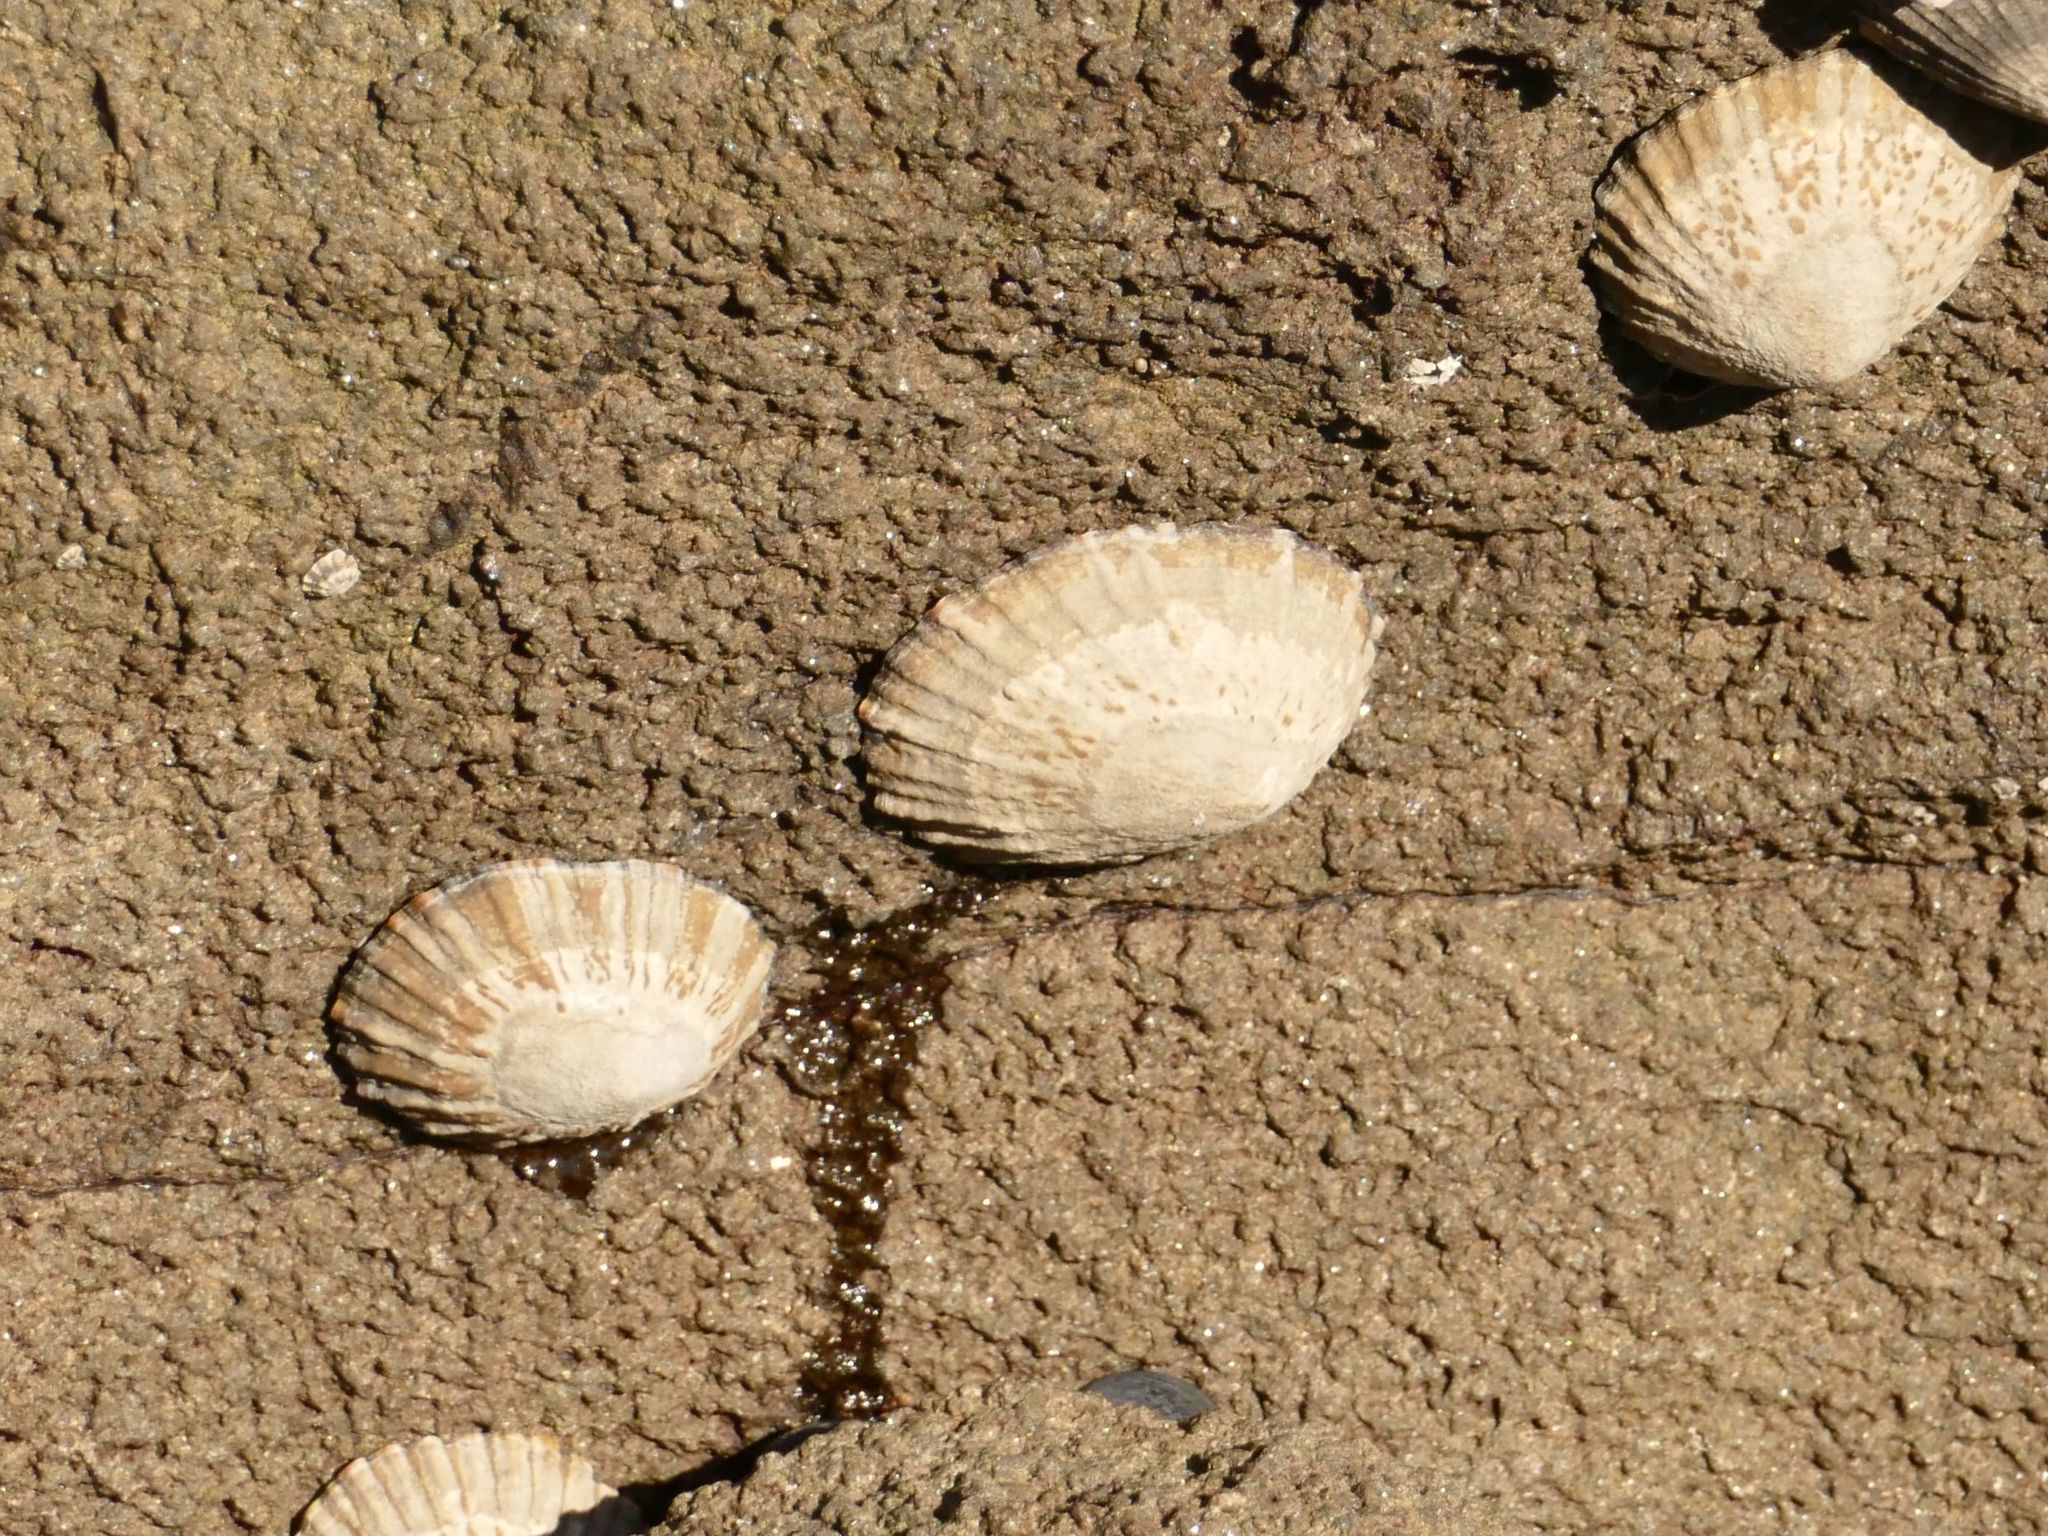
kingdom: Animalia
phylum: Mollusca
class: Gastropoda
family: Nacellidae
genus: Cellana
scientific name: Cellana tramoserica
